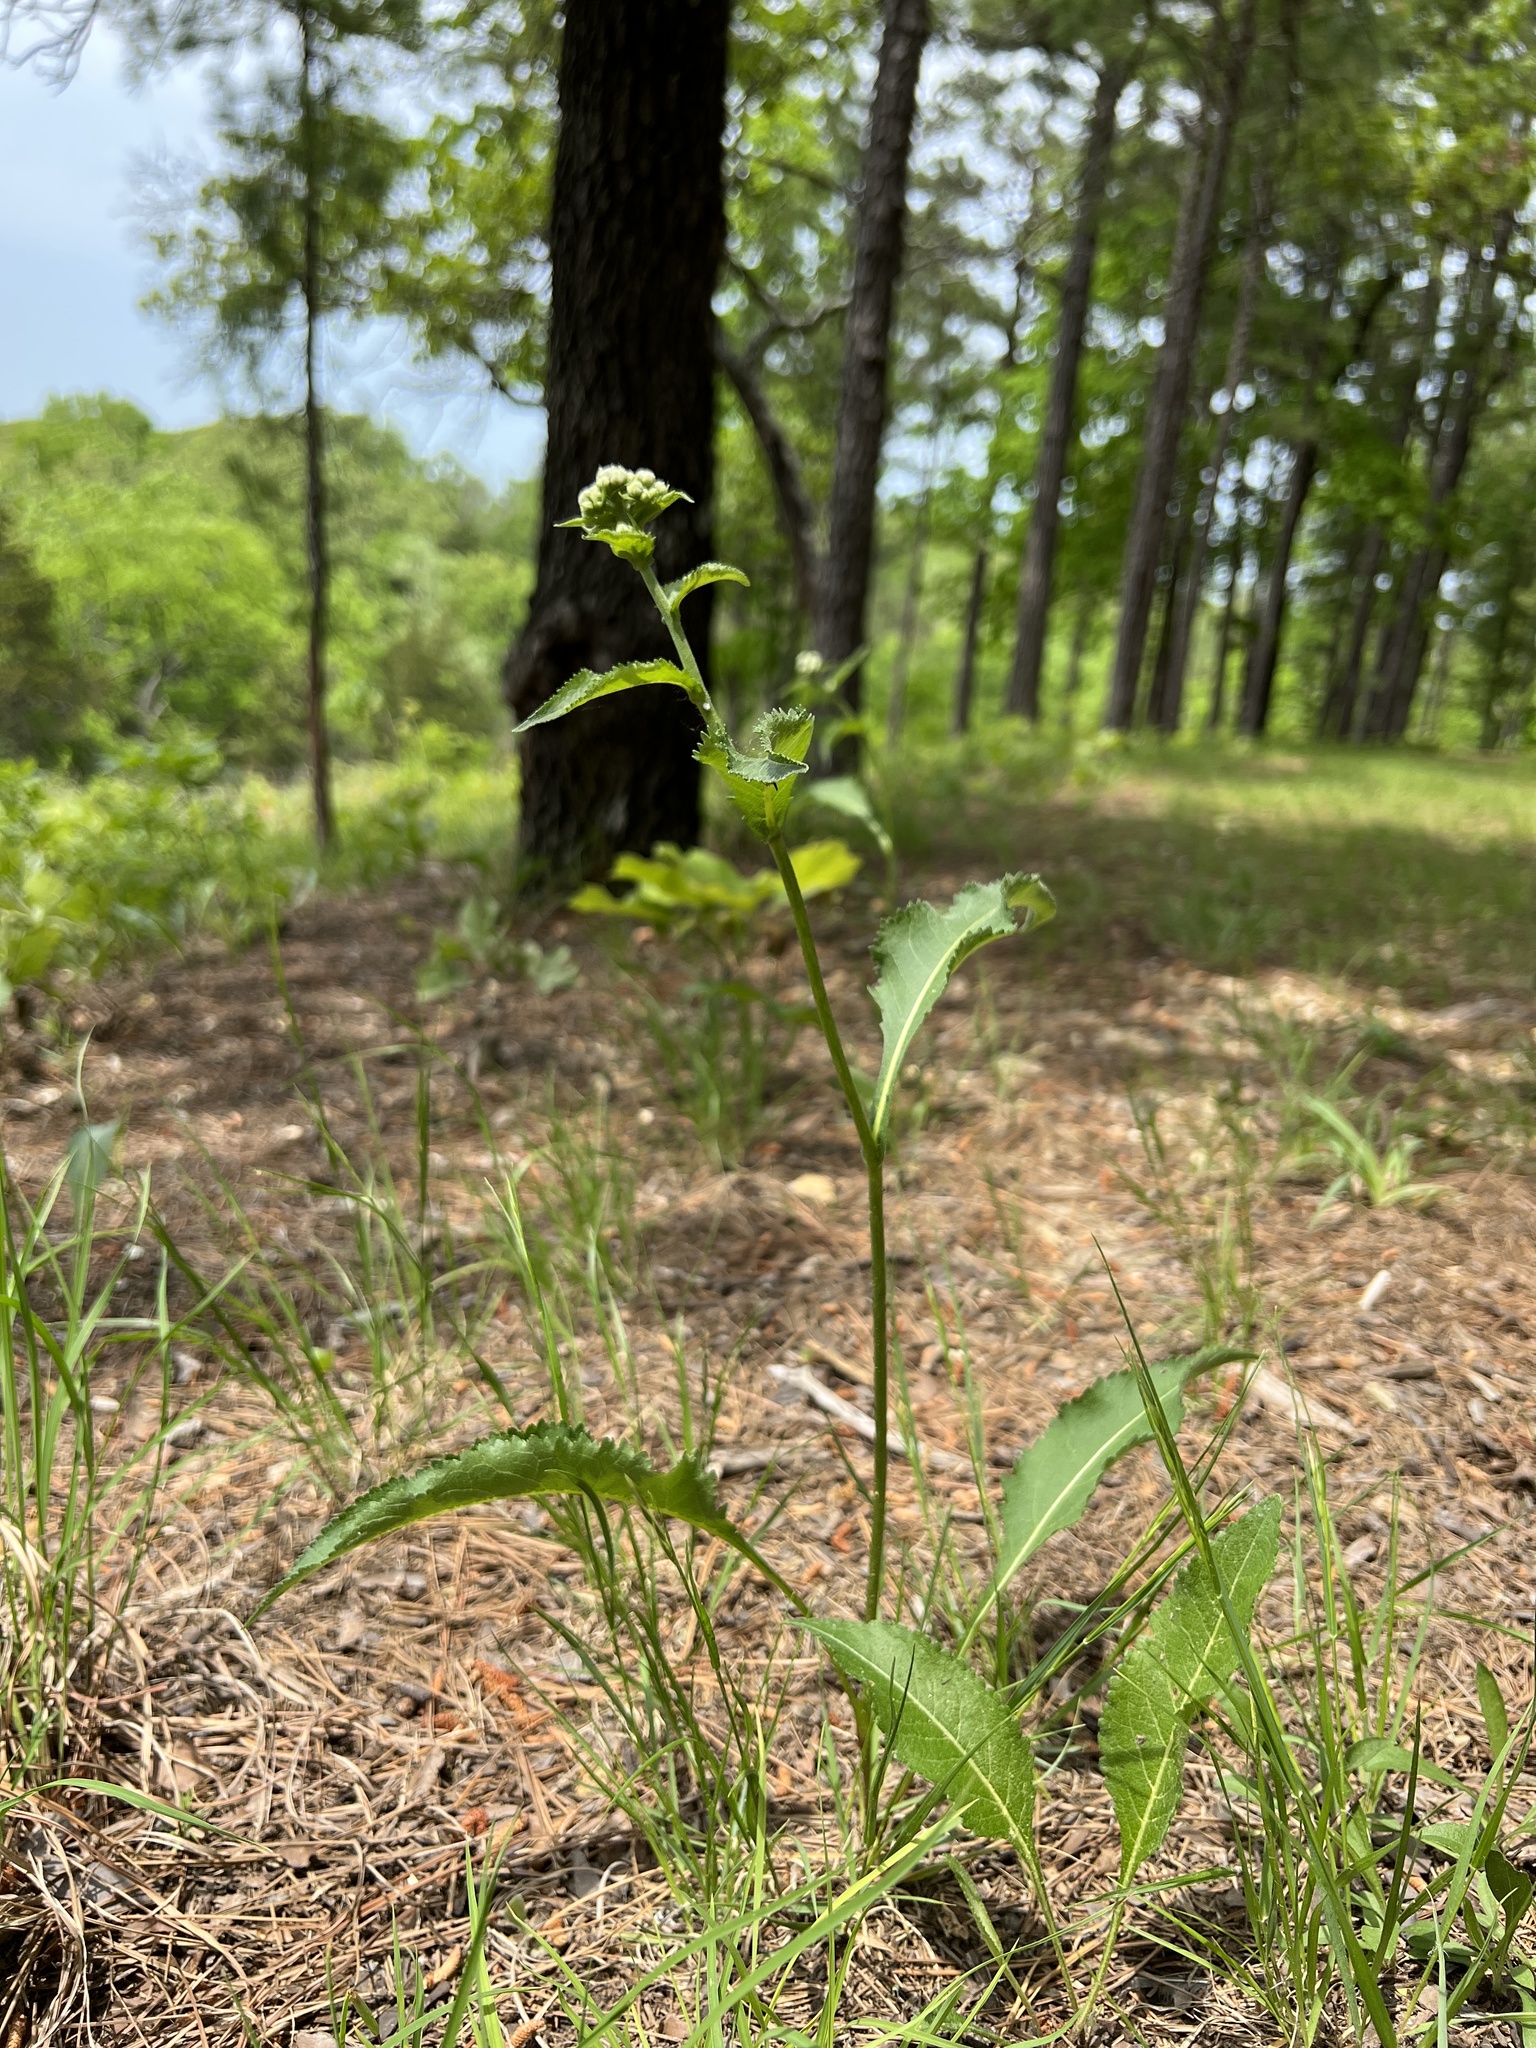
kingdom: Plantae
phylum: Tracheophyta
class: Magnoliopsida
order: Asterales
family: Asteraceae
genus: Parthenium
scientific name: Parthenium integrifolium
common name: American feverfew
